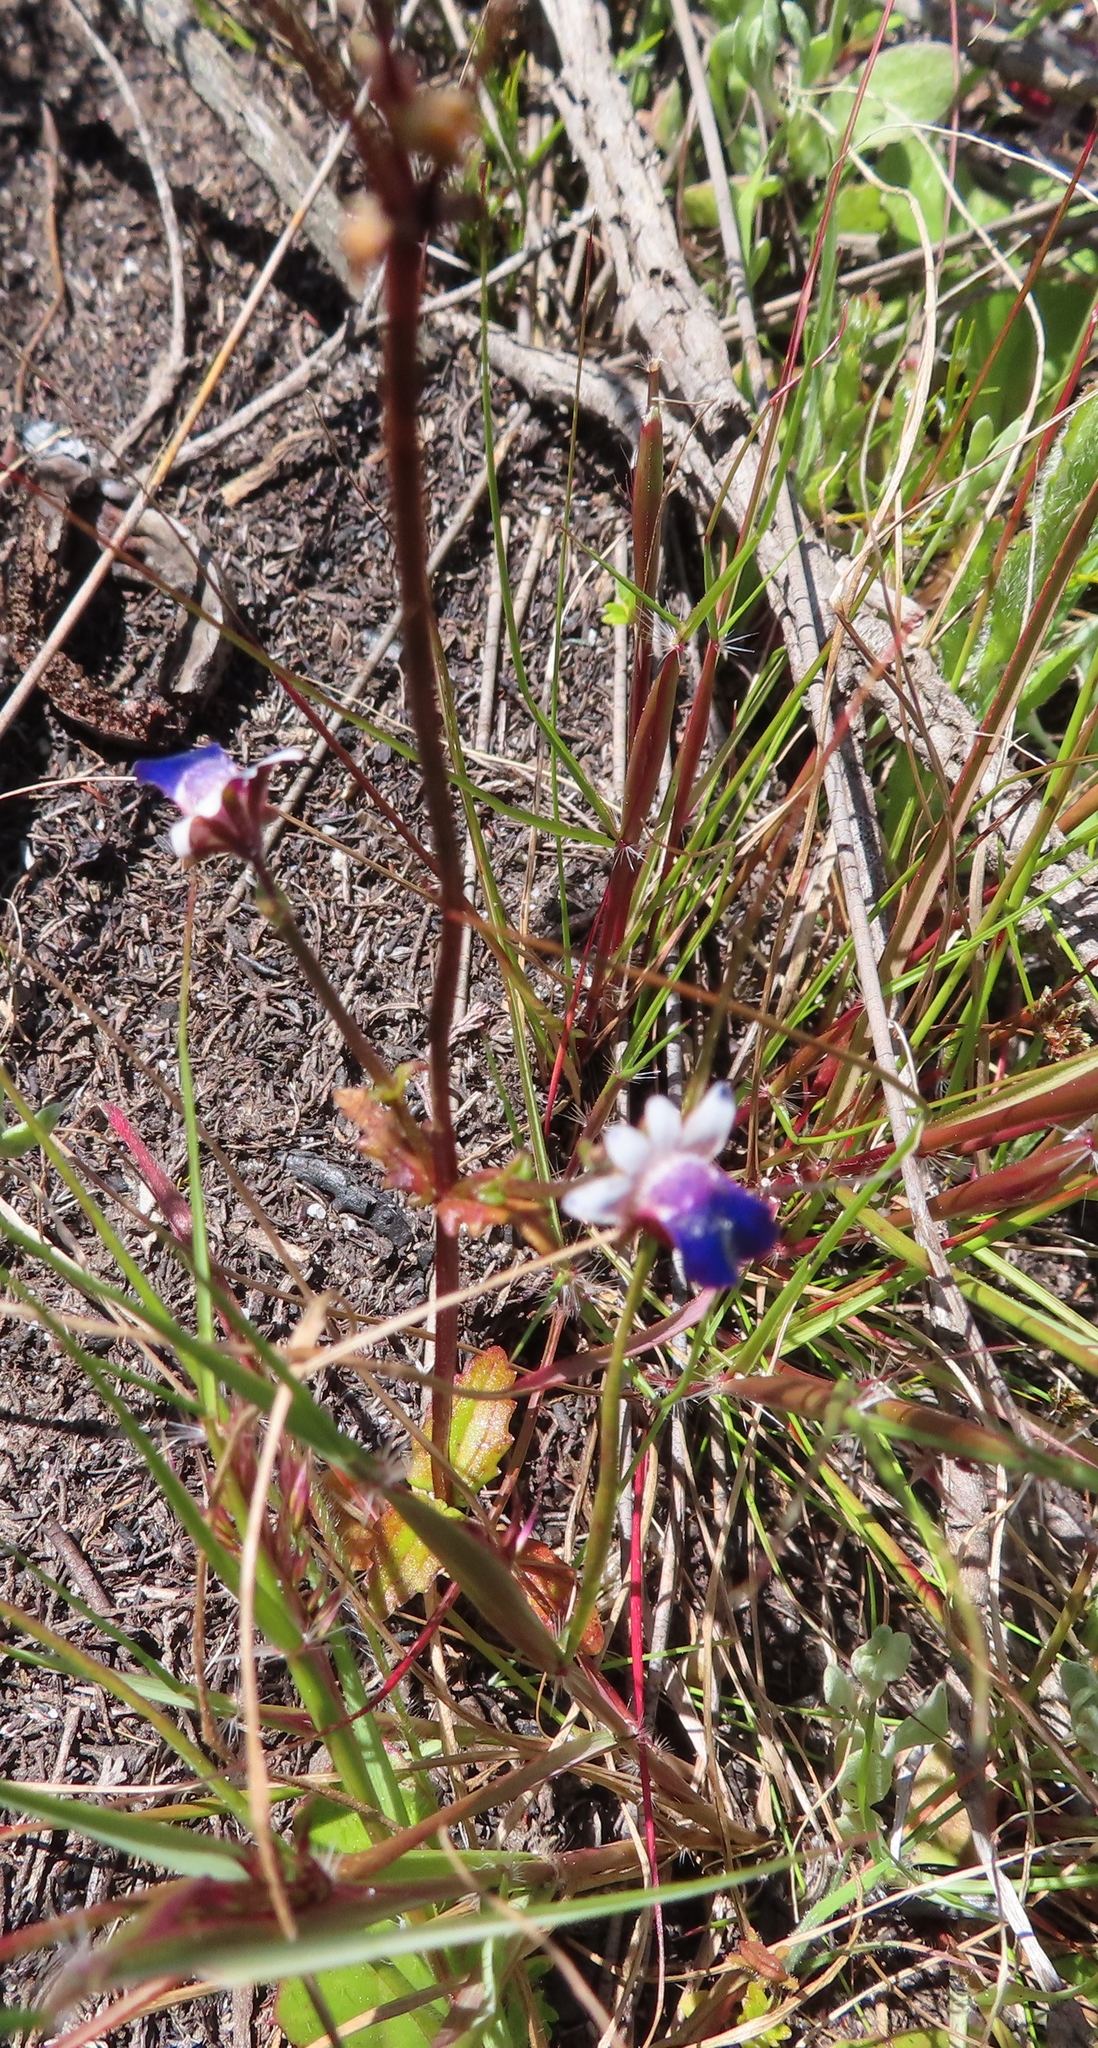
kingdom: Plantae
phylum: Tracheophyta
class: Magnoliopsida
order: Lamiales
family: Scrophulariaceae
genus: Nemesia
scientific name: Nemesia barbata
